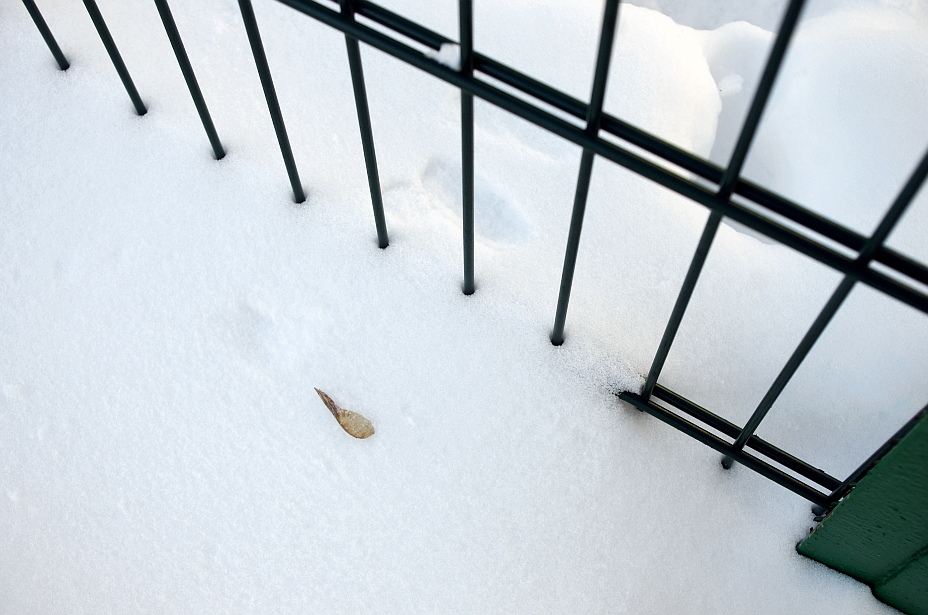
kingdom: Plantae
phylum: Tracheophyta
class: Magnoliopsida
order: Sapindales
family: Sapindaceae
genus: Acer
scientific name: Acer negundo
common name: Ashleaf maple
